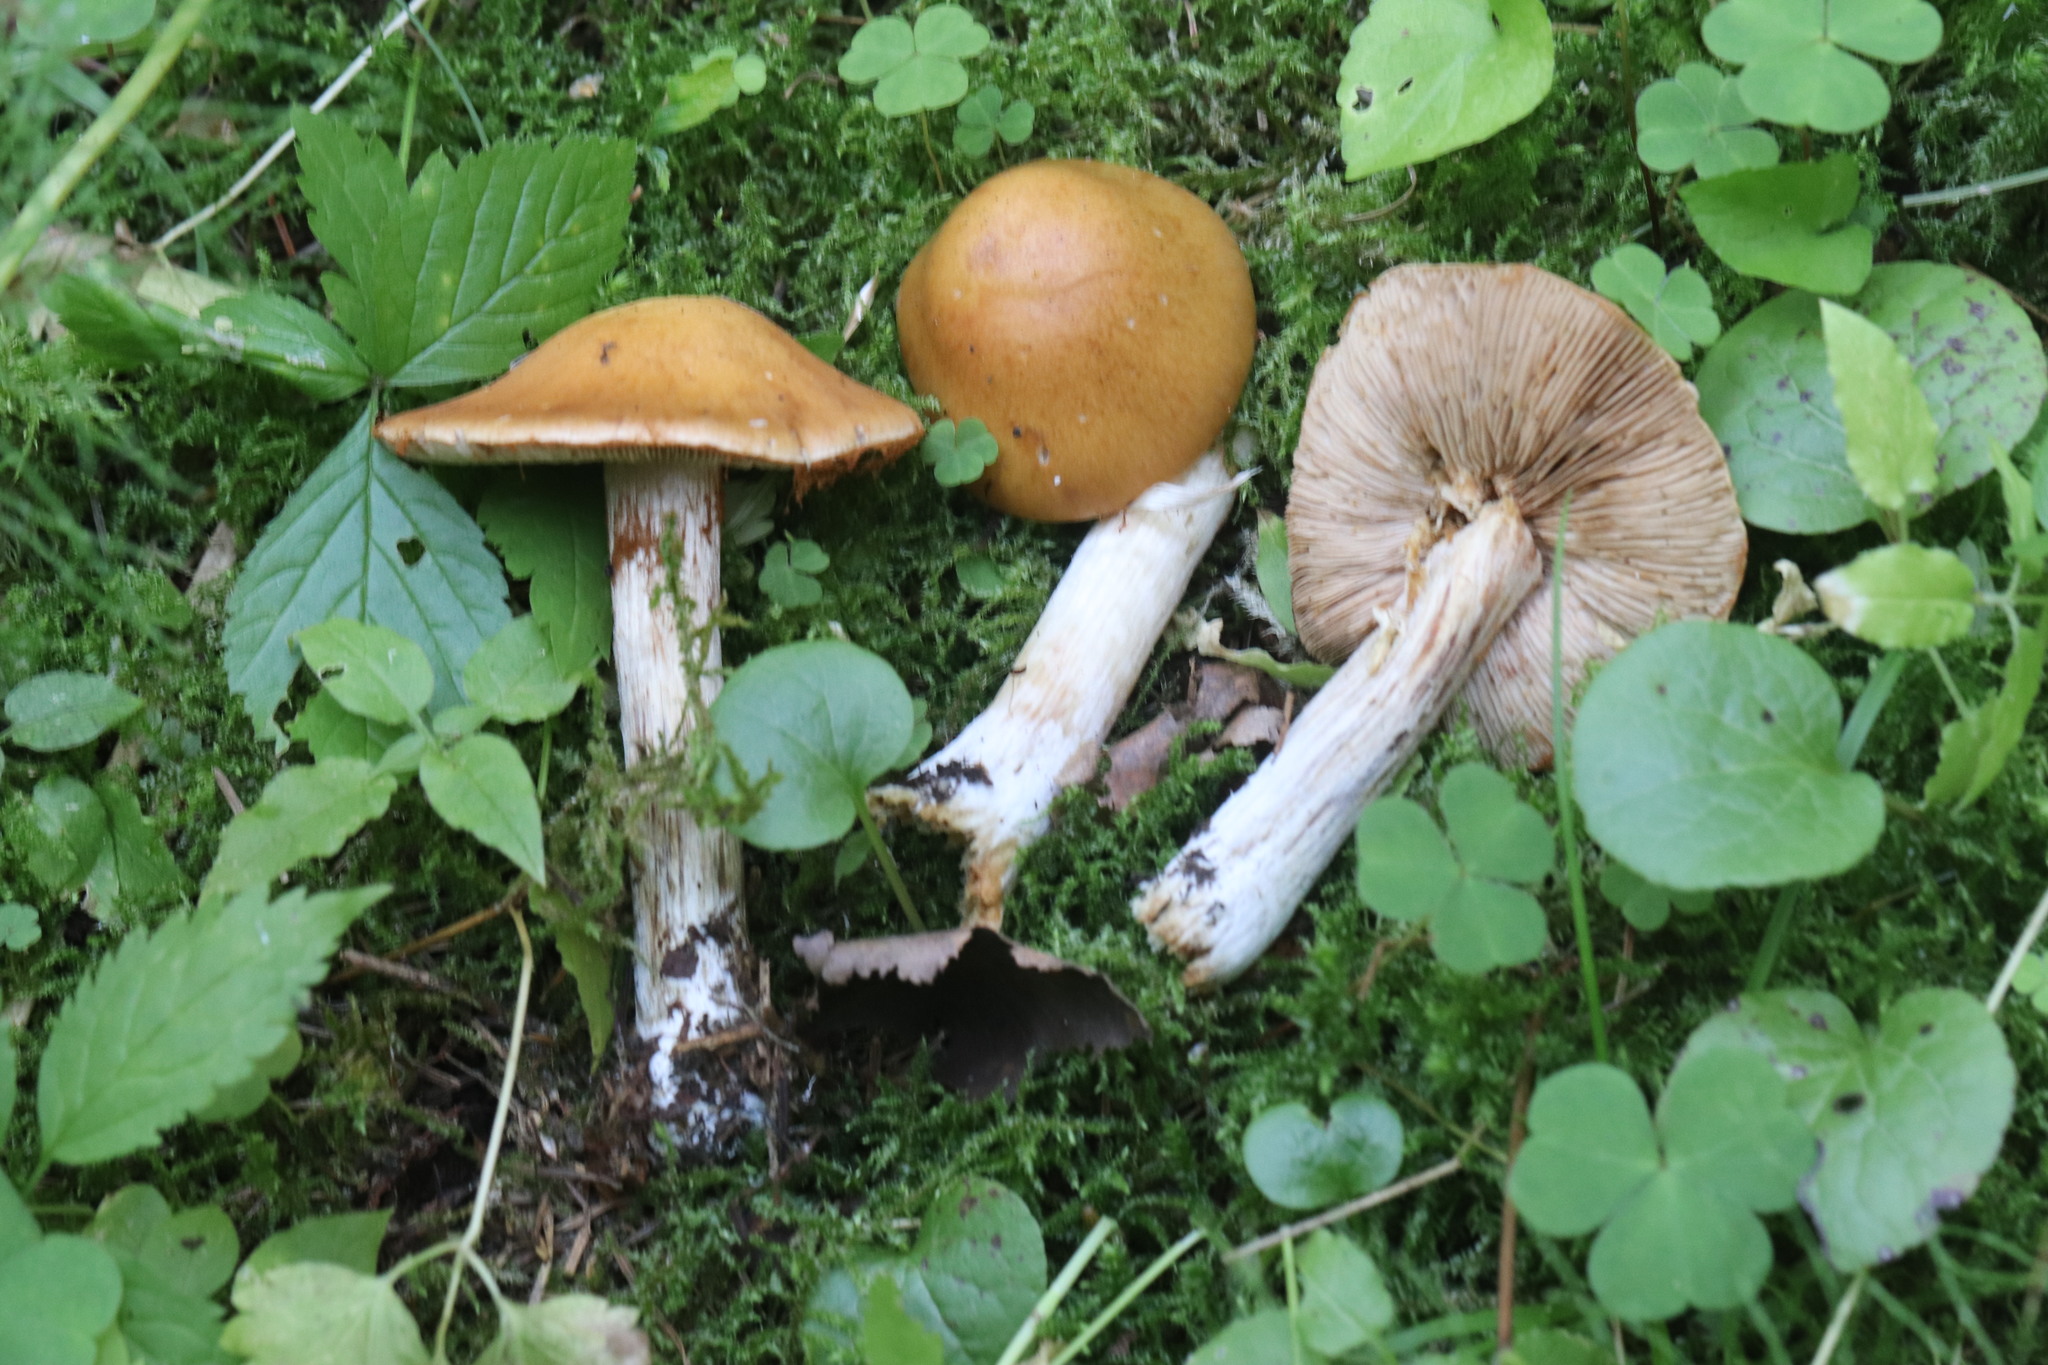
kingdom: Fungi
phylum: Basidiomycota
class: Agaricomycetes
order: Agaricales
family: Cortinariaceae
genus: Thaxterogaster
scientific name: Thaxterogaster multiformis
